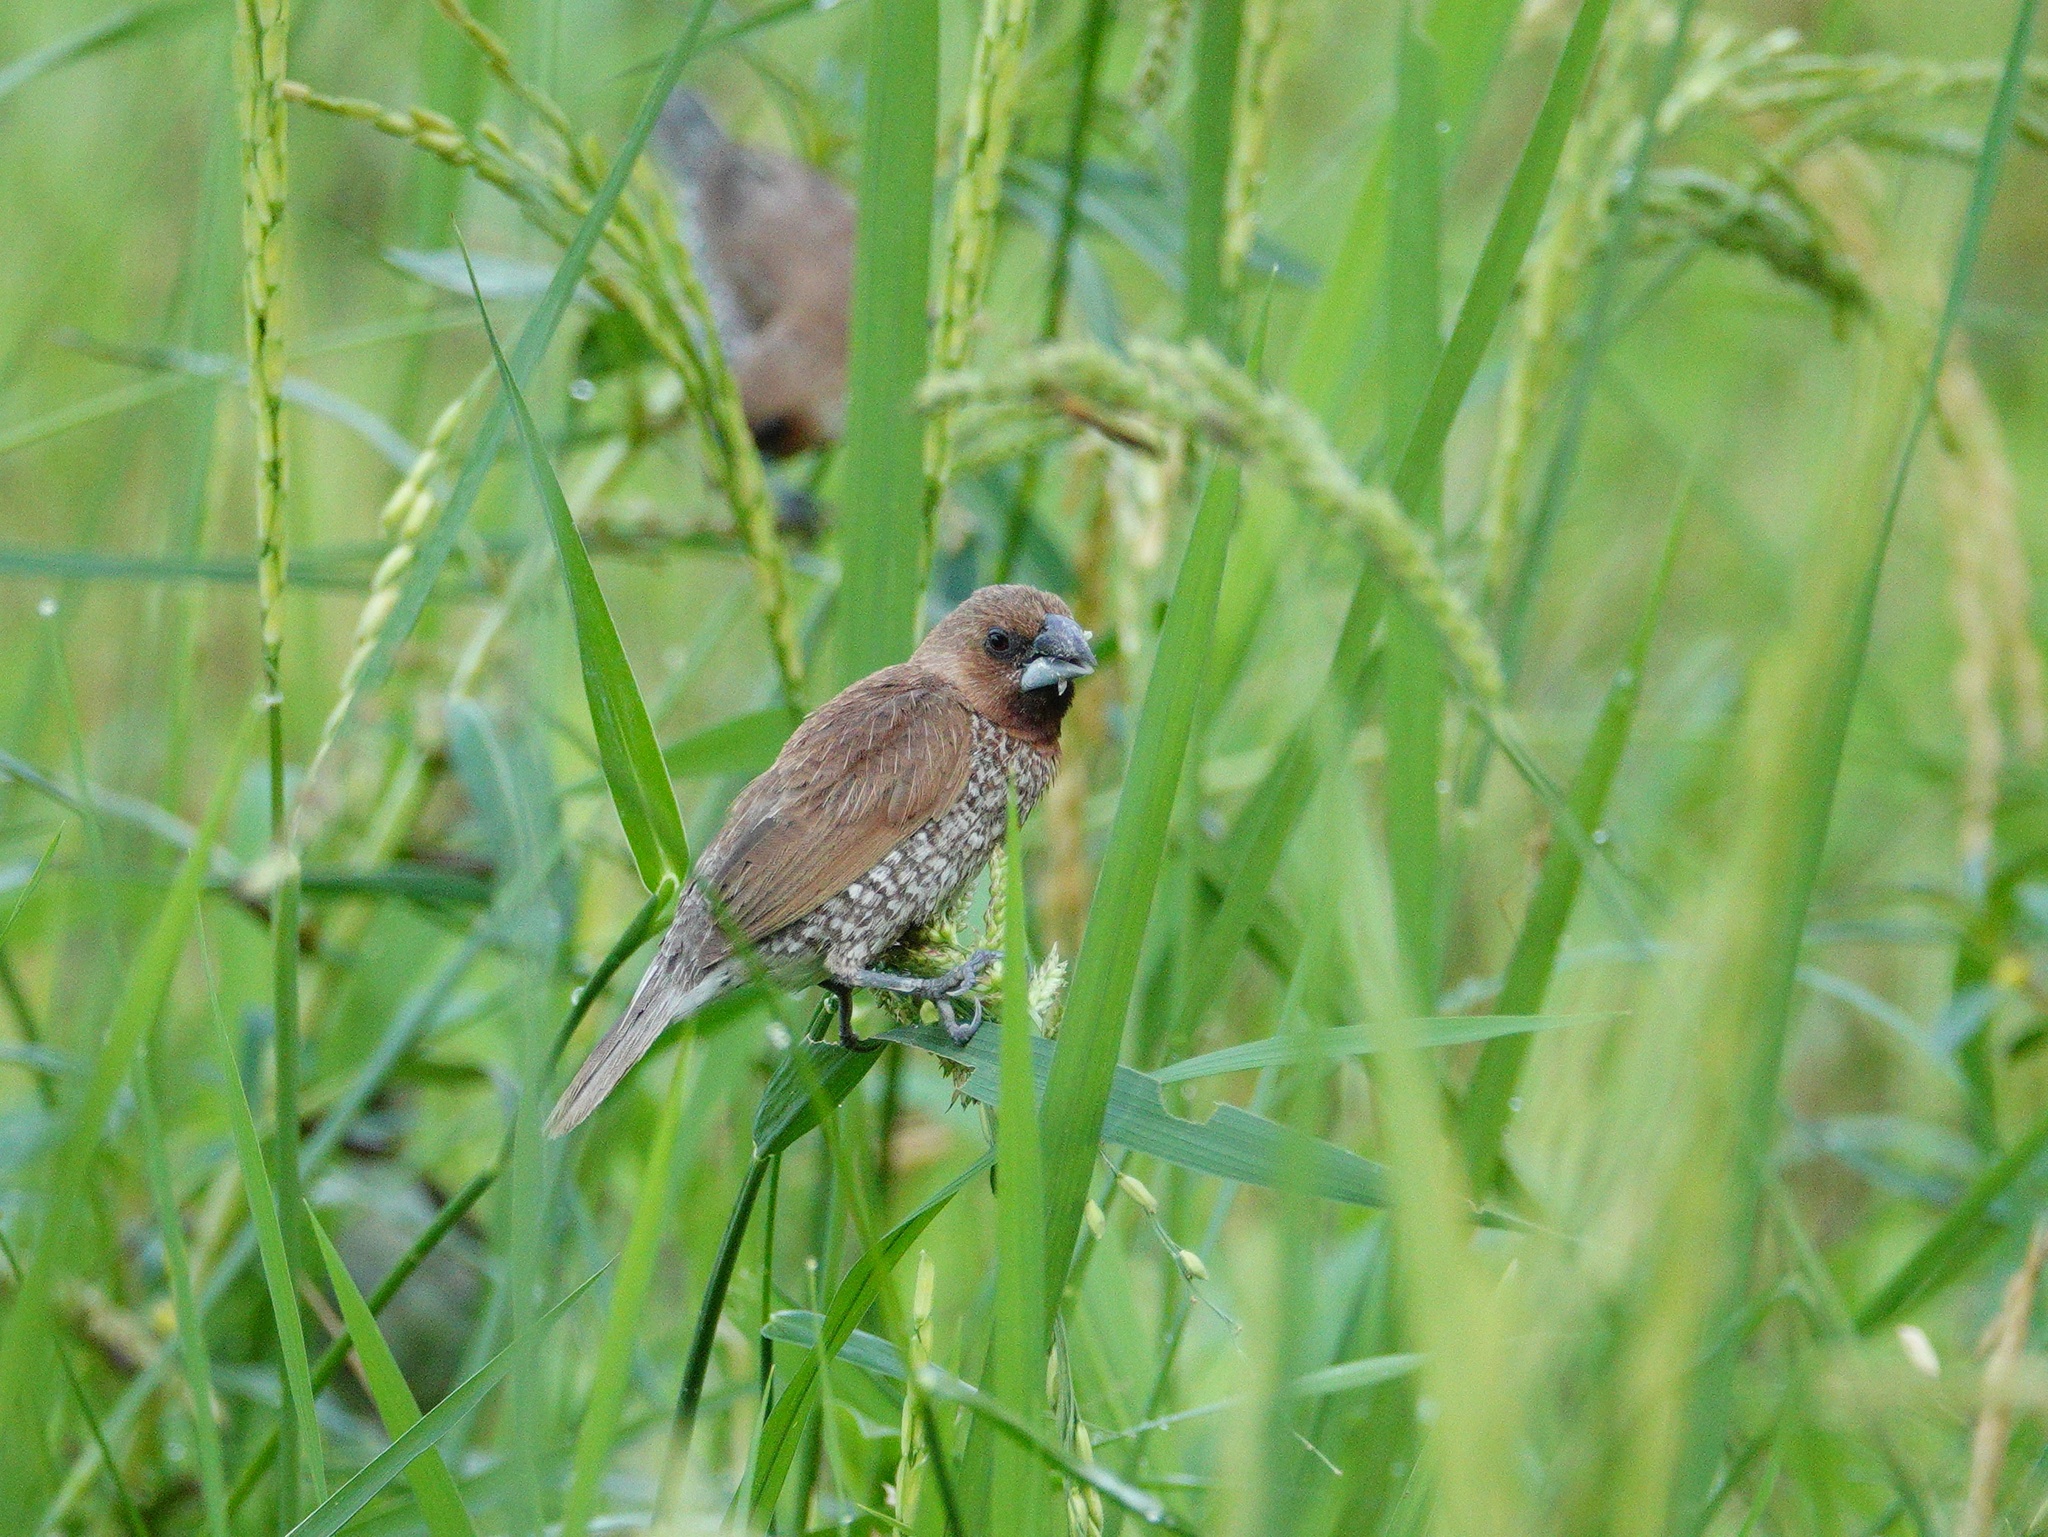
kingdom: Animalia
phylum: Chordata
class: Aves
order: Passeriformes
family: Estrildidae
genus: Lonchura
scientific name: Lonchura punctulata
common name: Scaly-breasted munia
